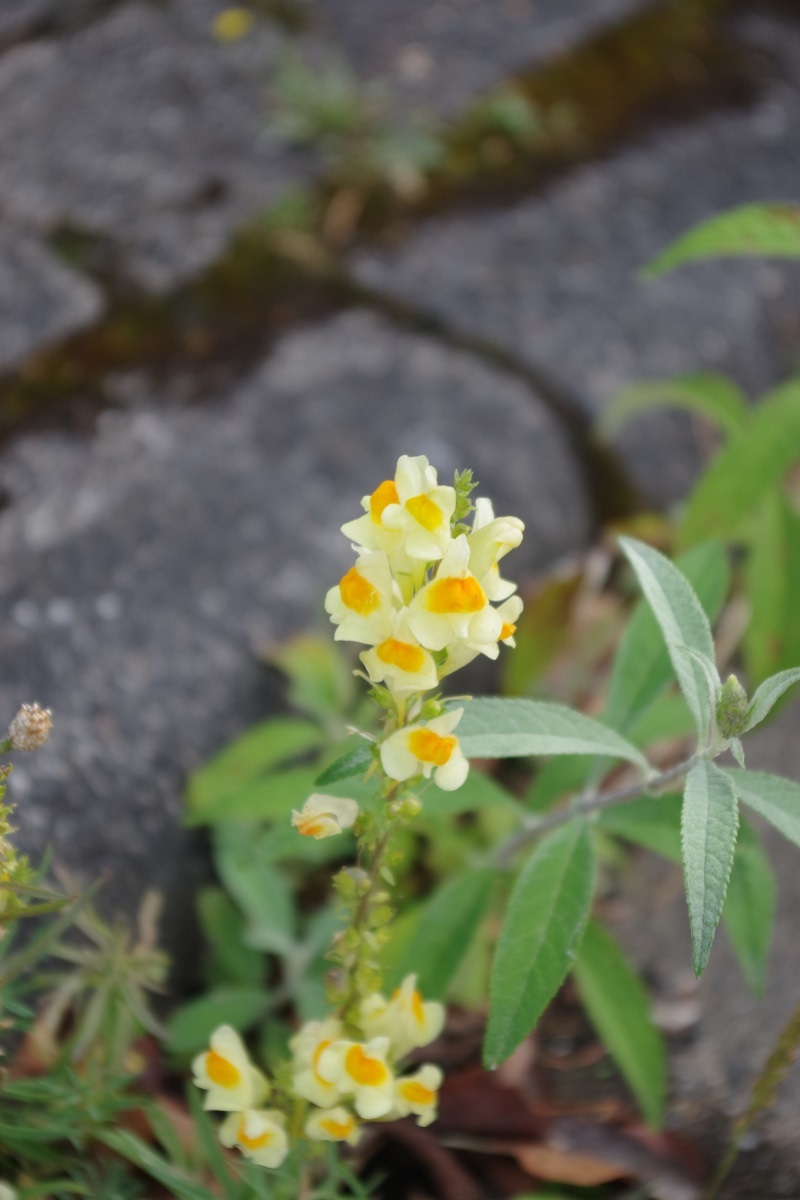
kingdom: Plantae
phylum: Tracheophyta
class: Magnoliopsida
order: Lamiales
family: Plantaginaceae
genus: Linaria
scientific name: Linaria vulgaris
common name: Butter and eggs
